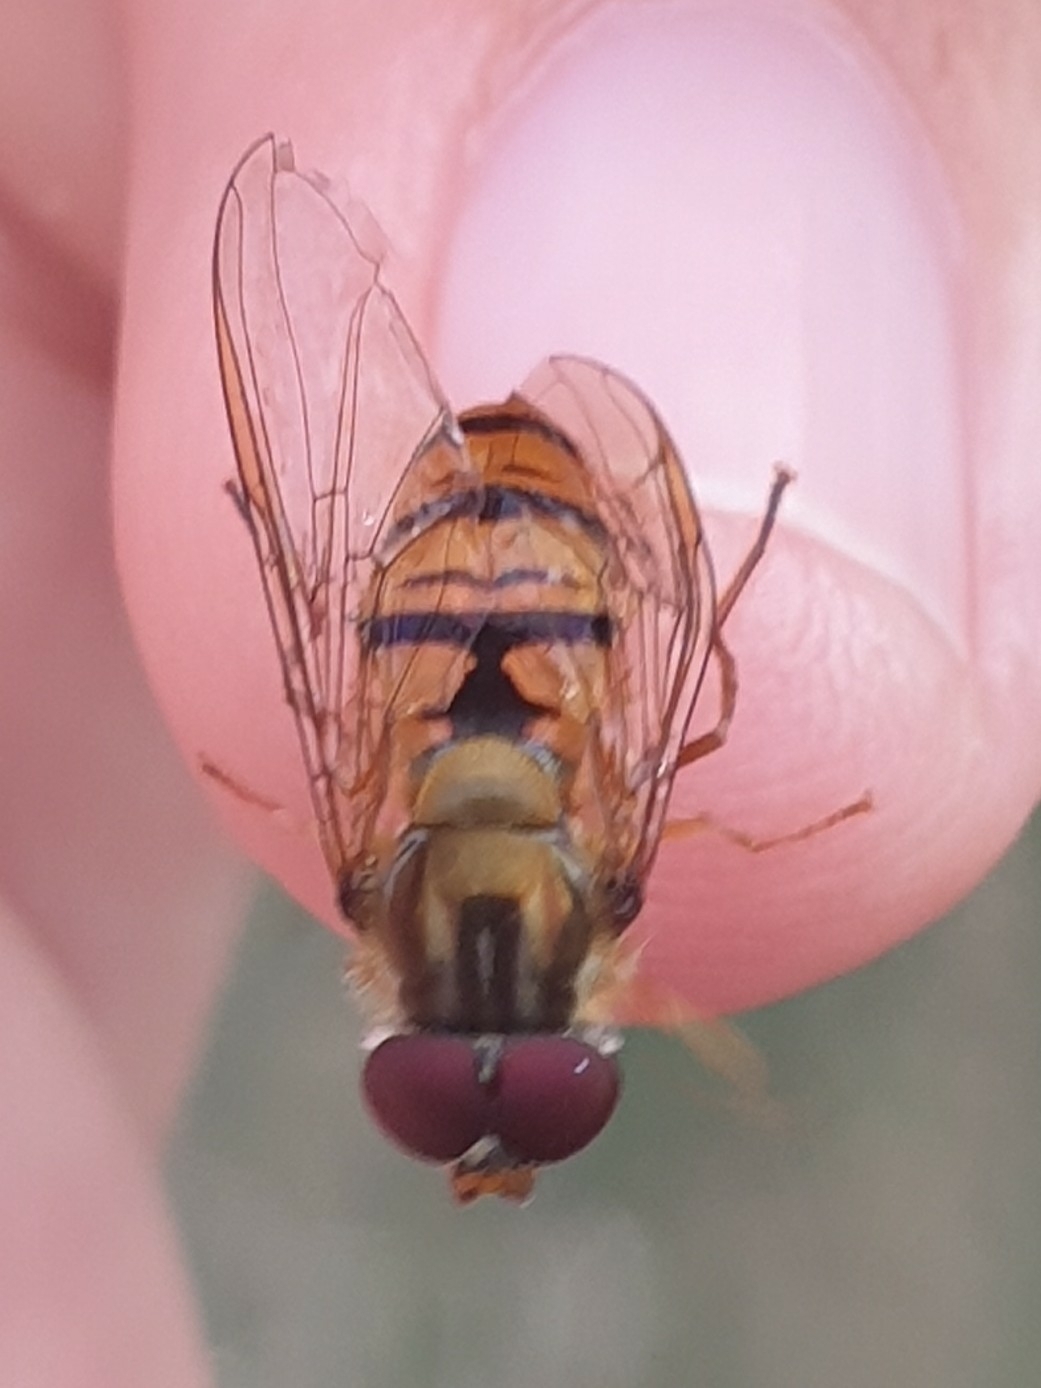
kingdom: Animalia
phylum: Arthropoda
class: Insecta
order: Diptera
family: Syrphidae
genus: Episyrphus
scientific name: Episyrphus balteatus
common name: Marmalade hoverfly
